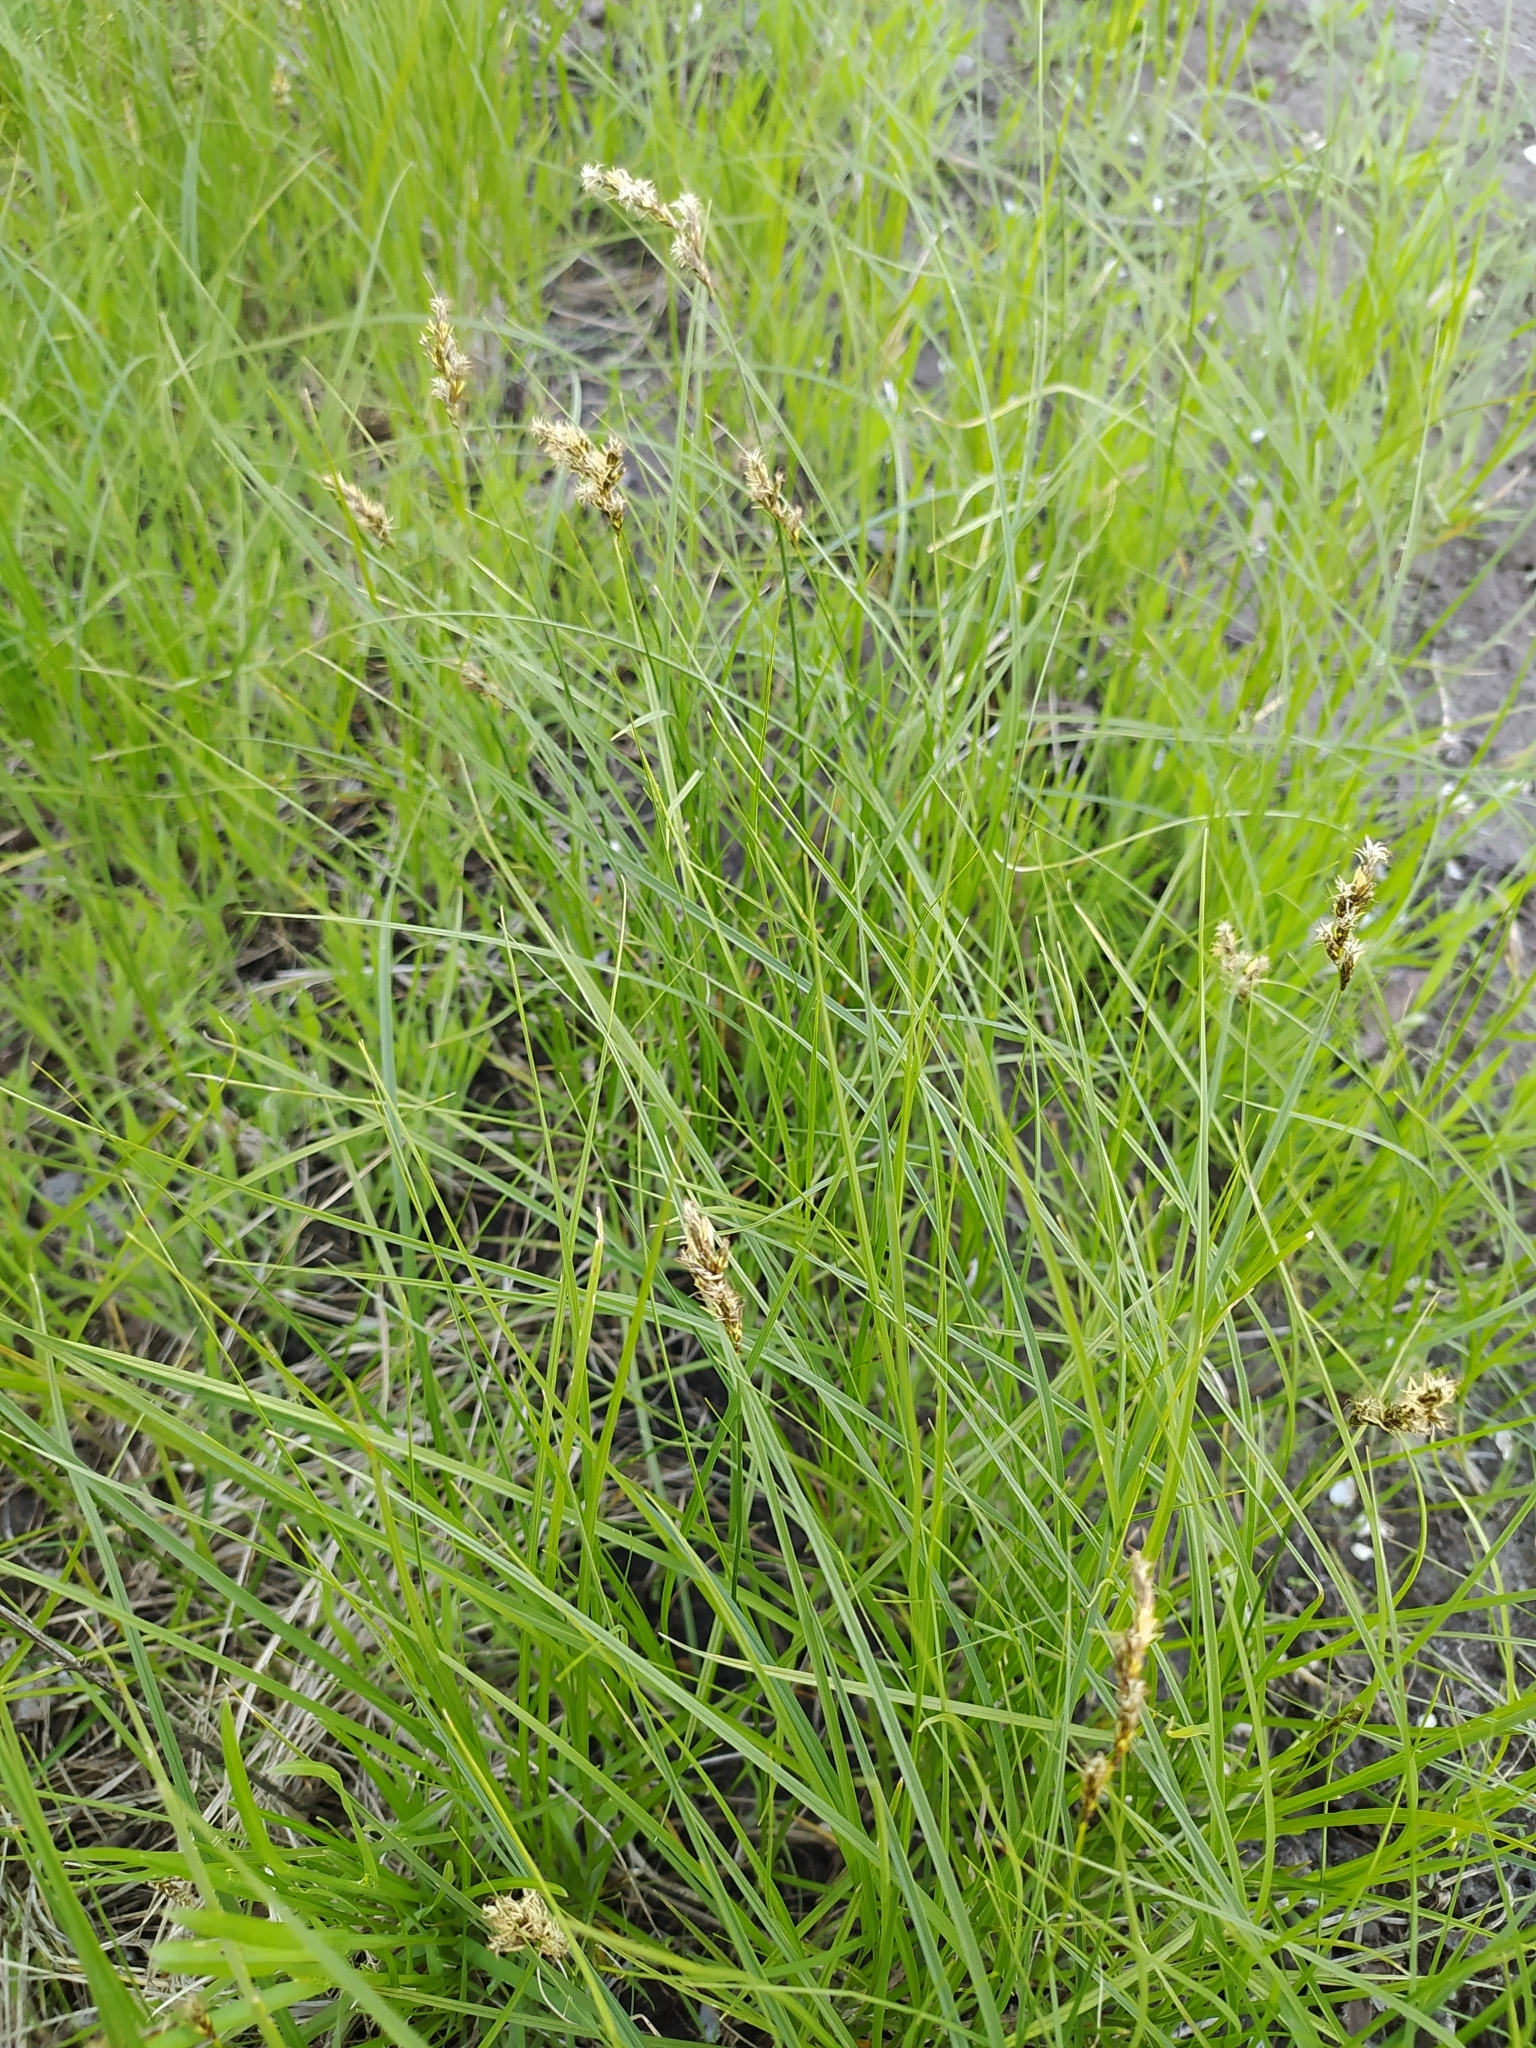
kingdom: Plantae
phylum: Tracheophyta
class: Liliopsida
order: Poales
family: Cyperaceae
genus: Carex
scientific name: Carex praecox
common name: Early sedge
